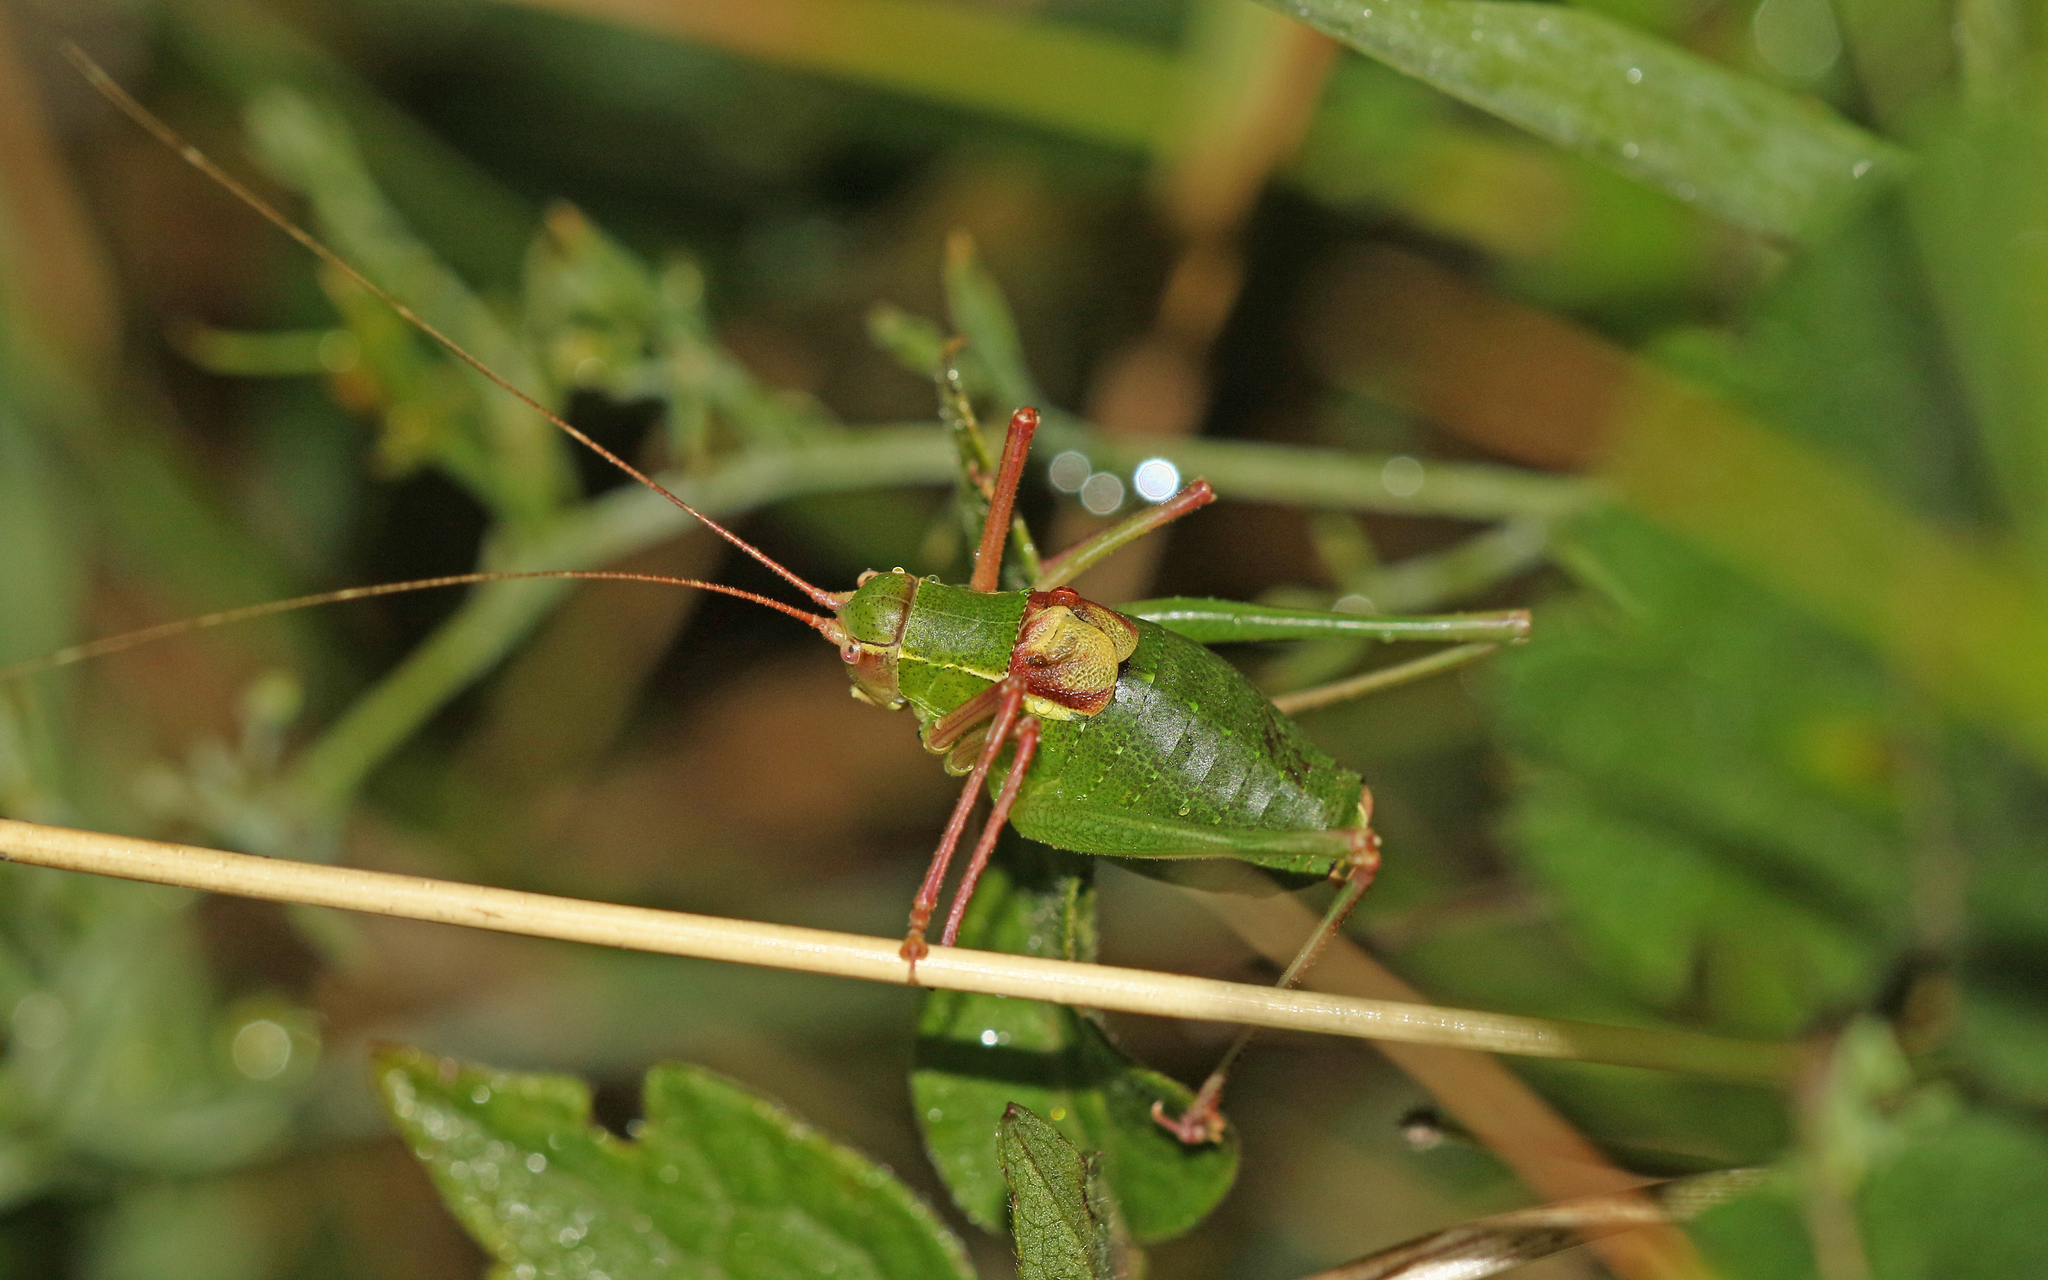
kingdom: Animalia
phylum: Arthropoda
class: Insecta
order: Orthoptera
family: Tettigoniidae
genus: Barbitistes
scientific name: Barbitistes fischeri
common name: Southern saw-tailed bush-cricket
